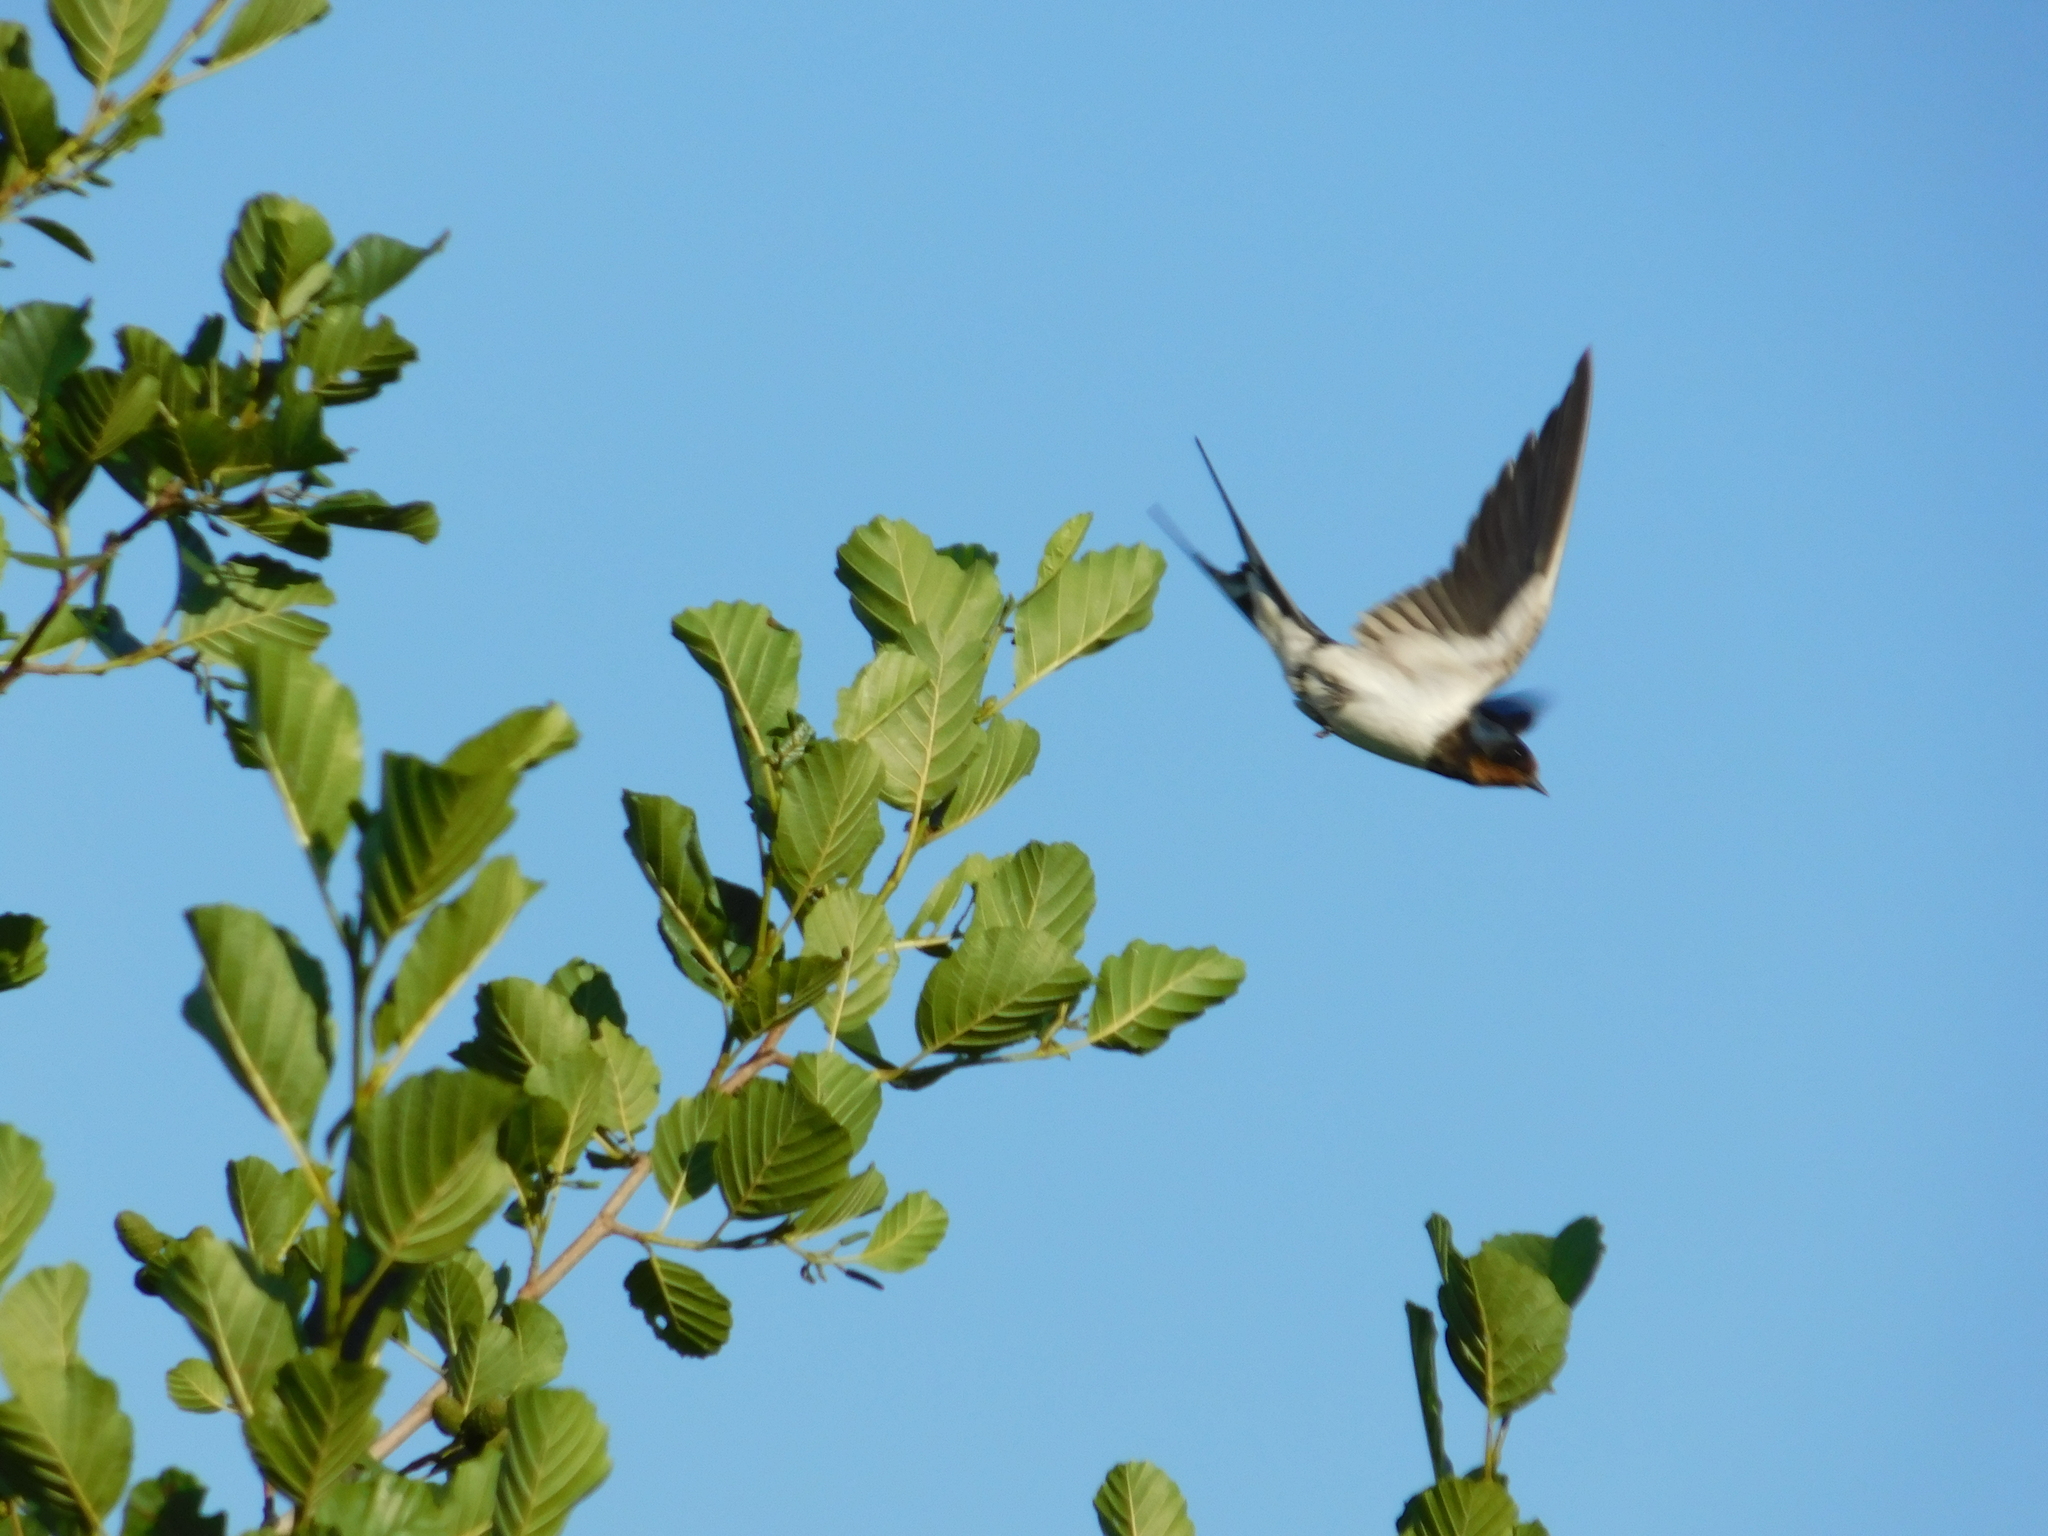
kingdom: Animalia
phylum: Chordata
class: Aves
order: Passeriformes
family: Hirundinidae
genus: Hirundo
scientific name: Hirundo rustica
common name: Barn swallow
